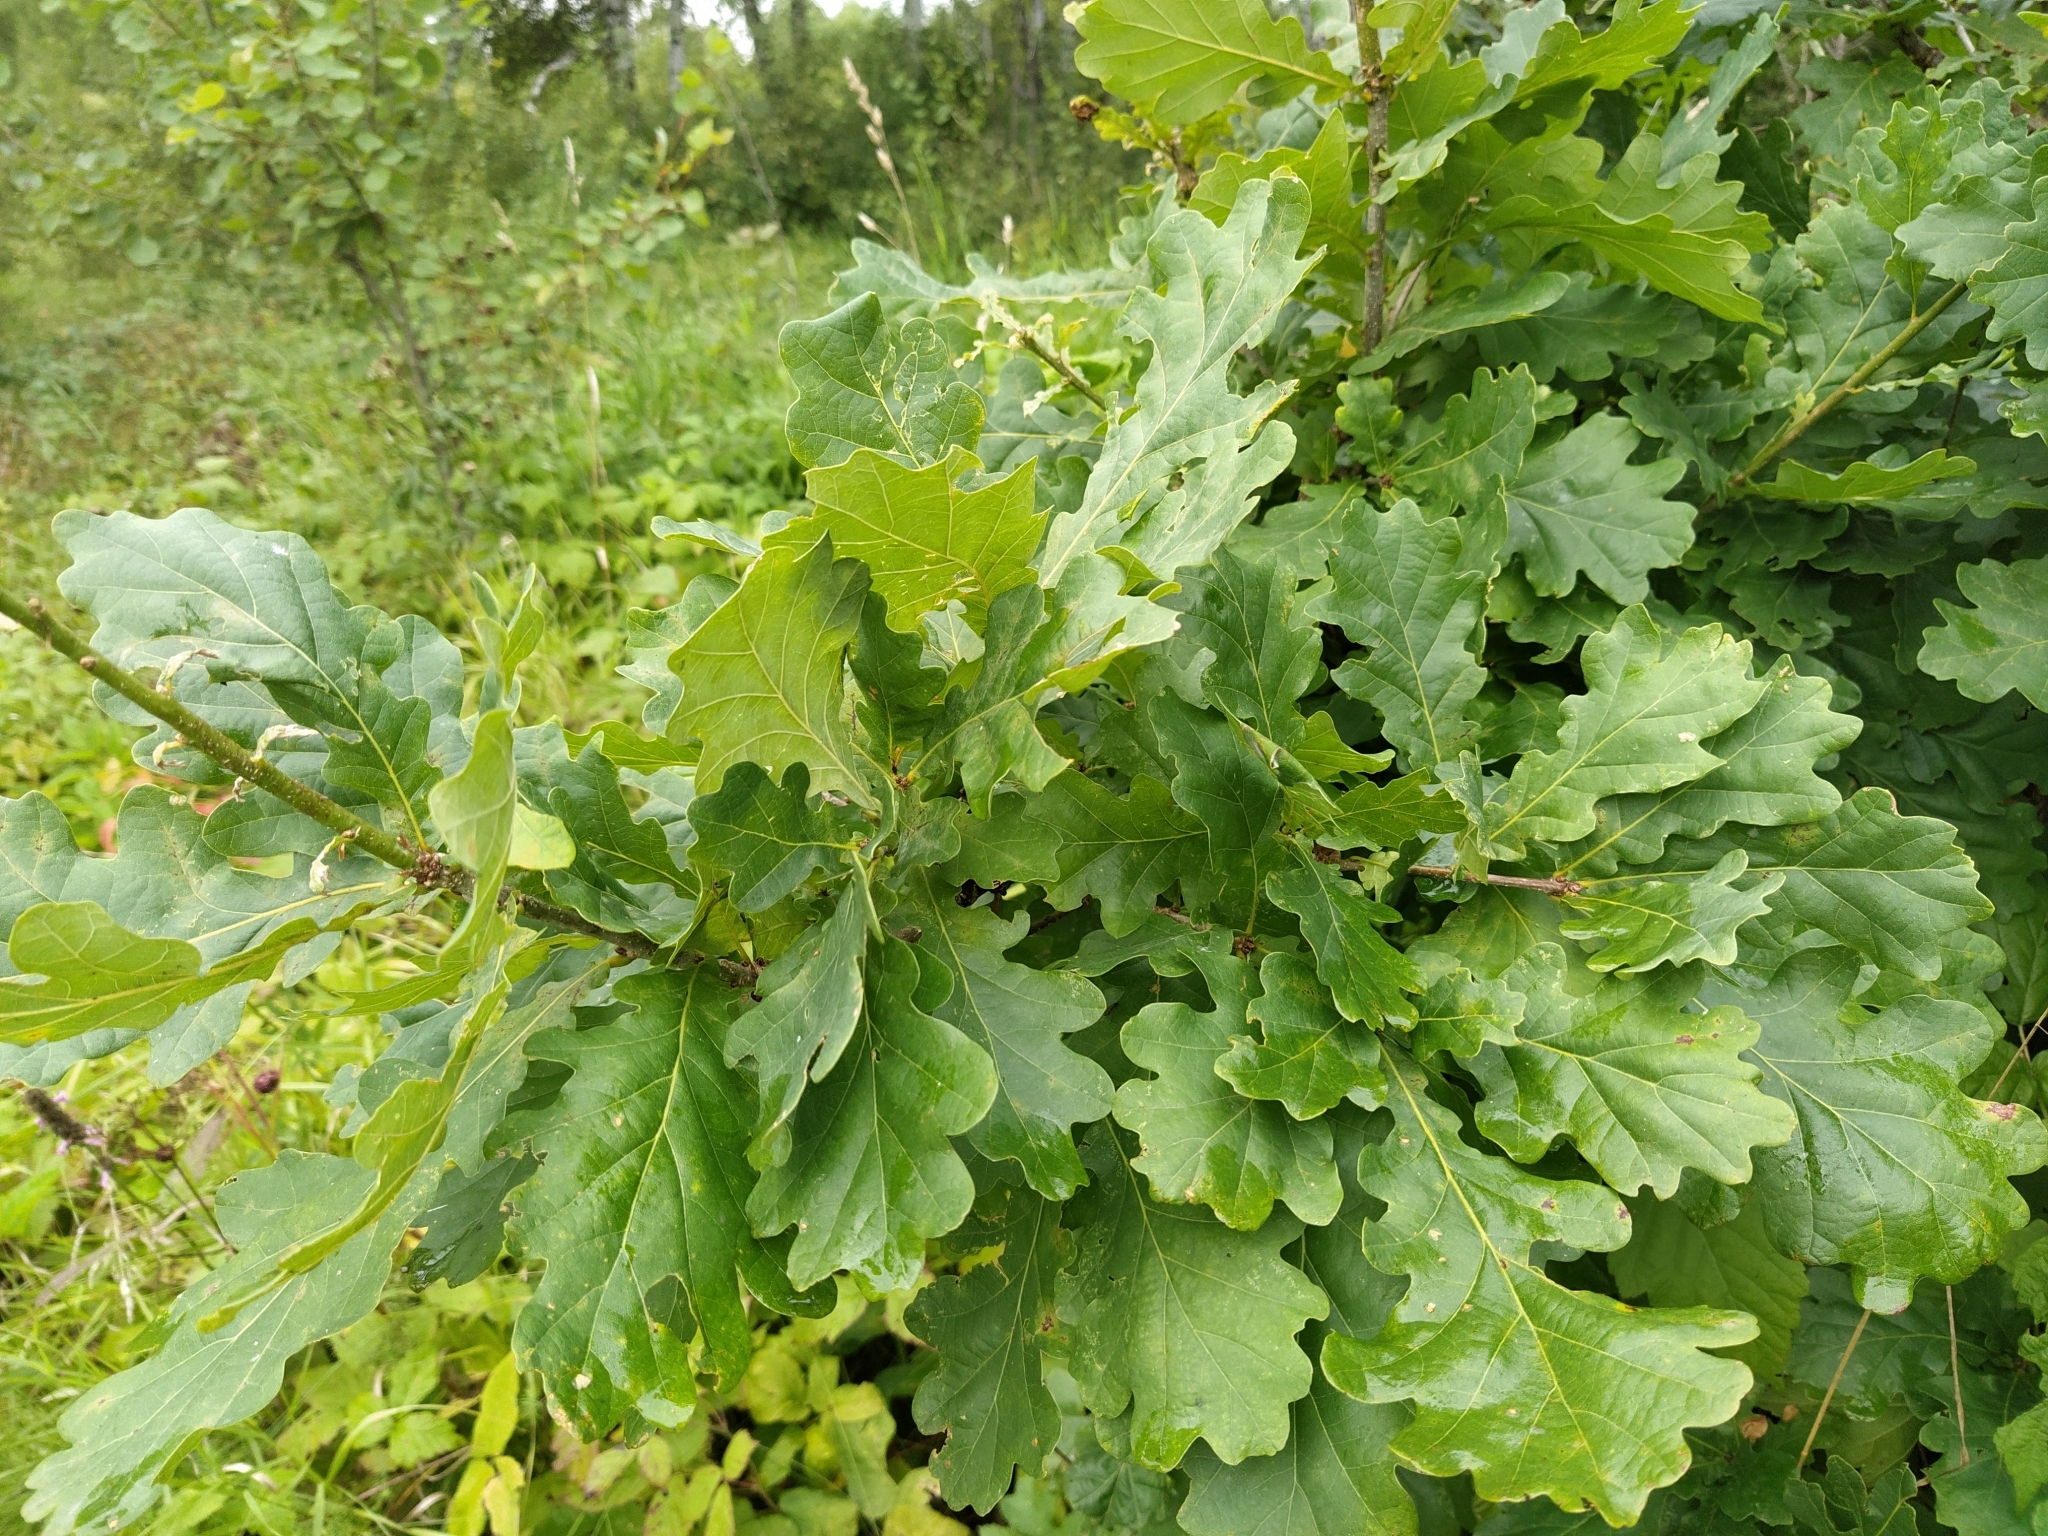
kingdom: Plantae
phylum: Tracheophyta
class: Magnoliopsida
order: Fagales
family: Fagaceae
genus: Quercus
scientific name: Quercus robur
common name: Pedunculate oak
